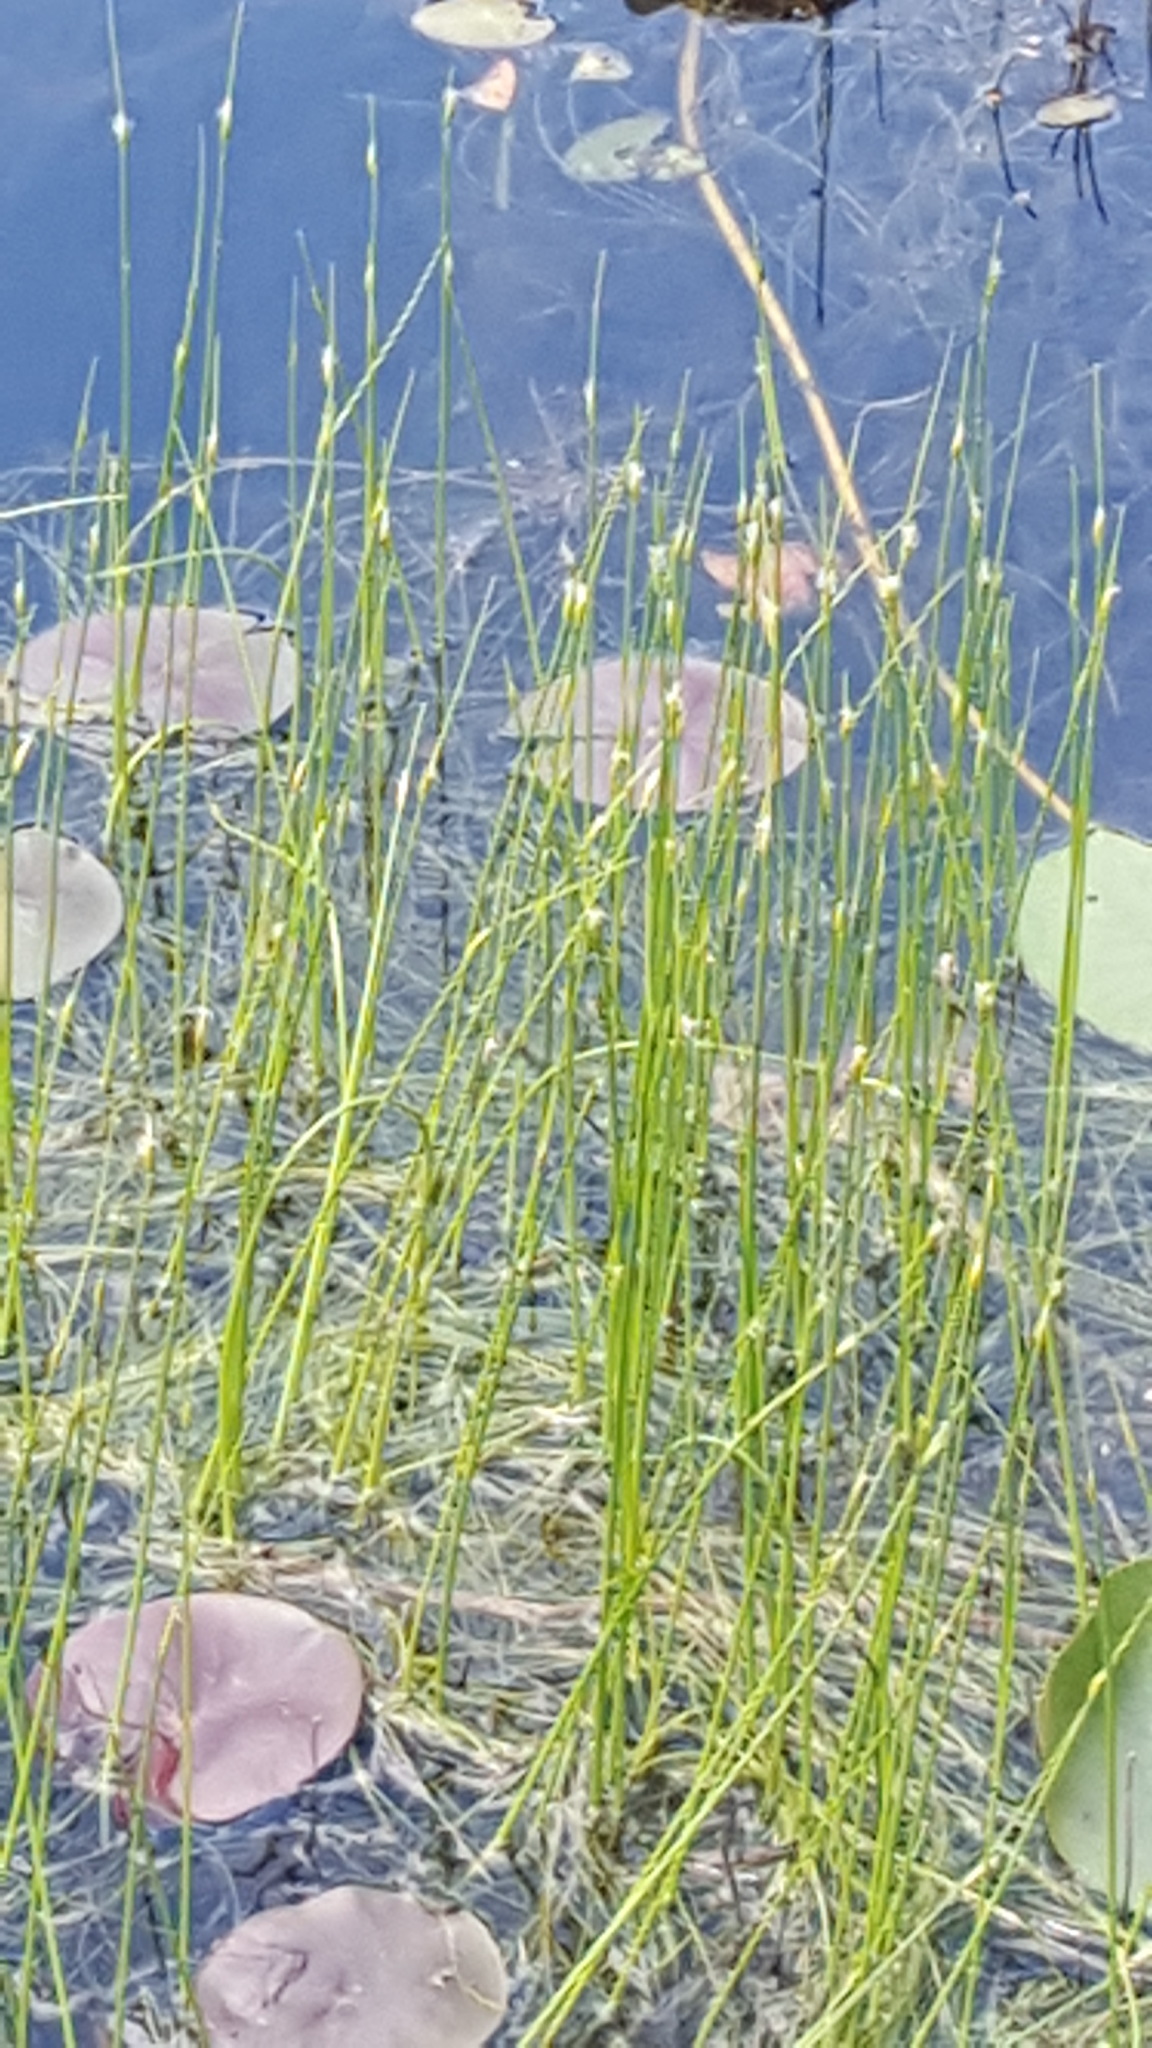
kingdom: Plantae
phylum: Tracheophyta
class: Liliopsida
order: Poales
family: Cyperaceae
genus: Schoenoplectus
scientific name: Schoenoplectus subterminalis
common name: Swaying bulrush
